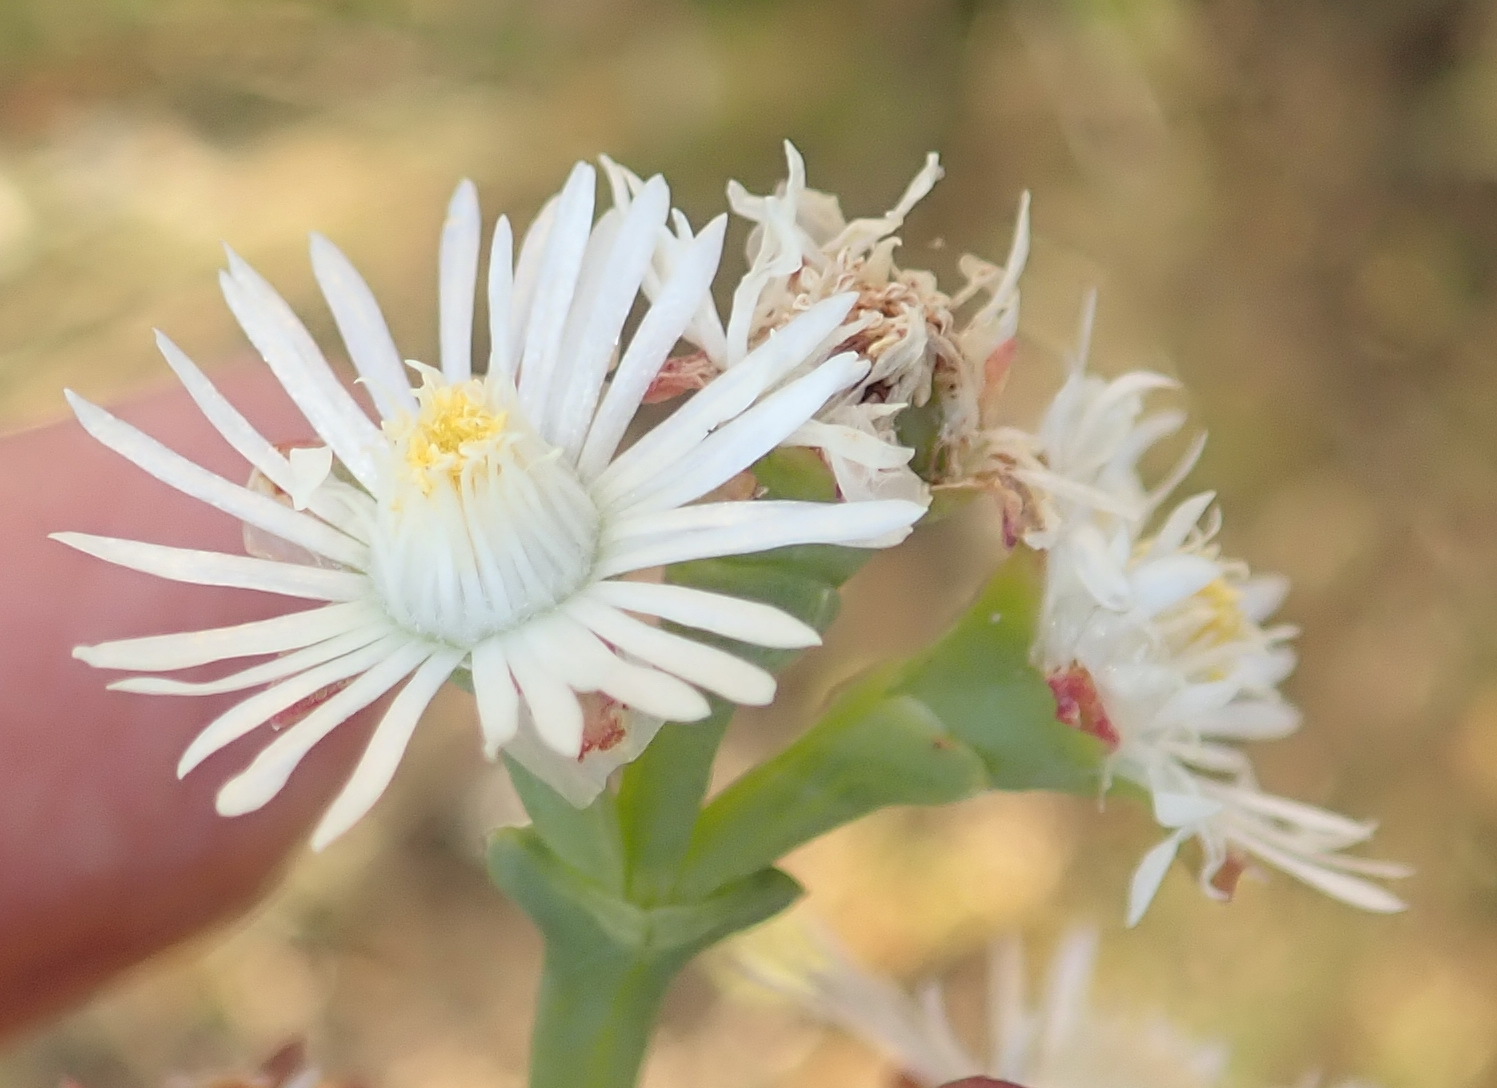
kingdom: Plantae
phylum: Tracheophyta
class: Magnoliopsida
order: Caryophyllales
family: Aizoaceae
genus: Ruschia
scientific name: Ruschia multiflora
